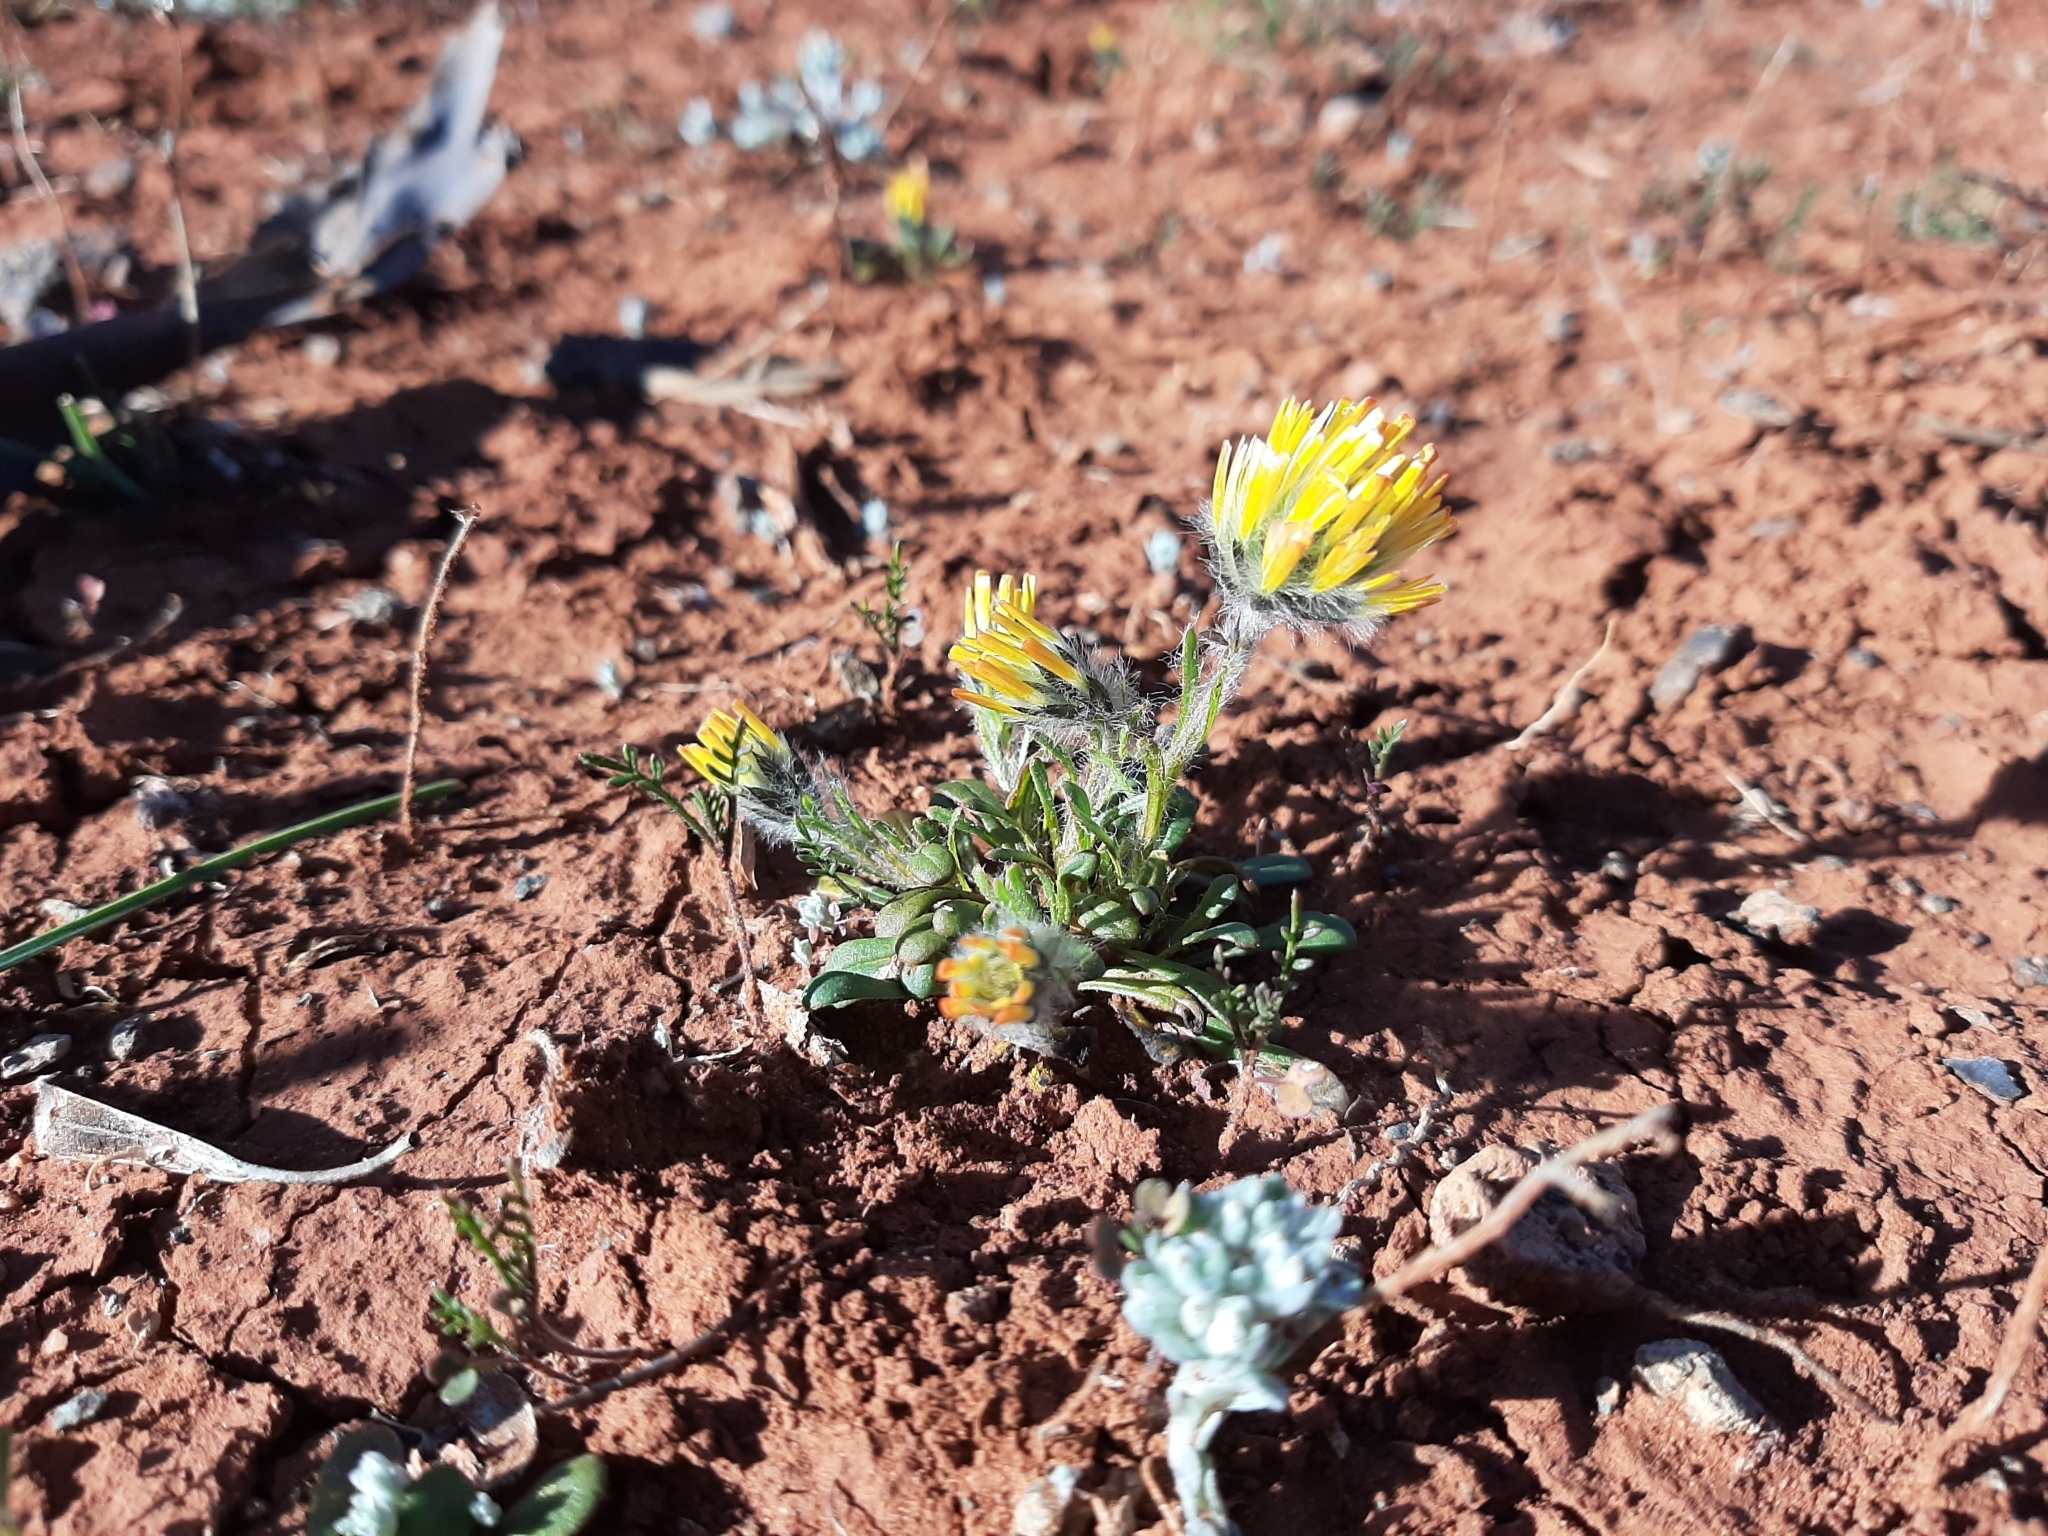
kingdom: Plantae
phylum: Tracheophyta
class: Magnoliopsida
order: Caryophyllales
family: Amaranthaceae
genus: Ptilotus
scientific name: Ptilotus carlsonii
